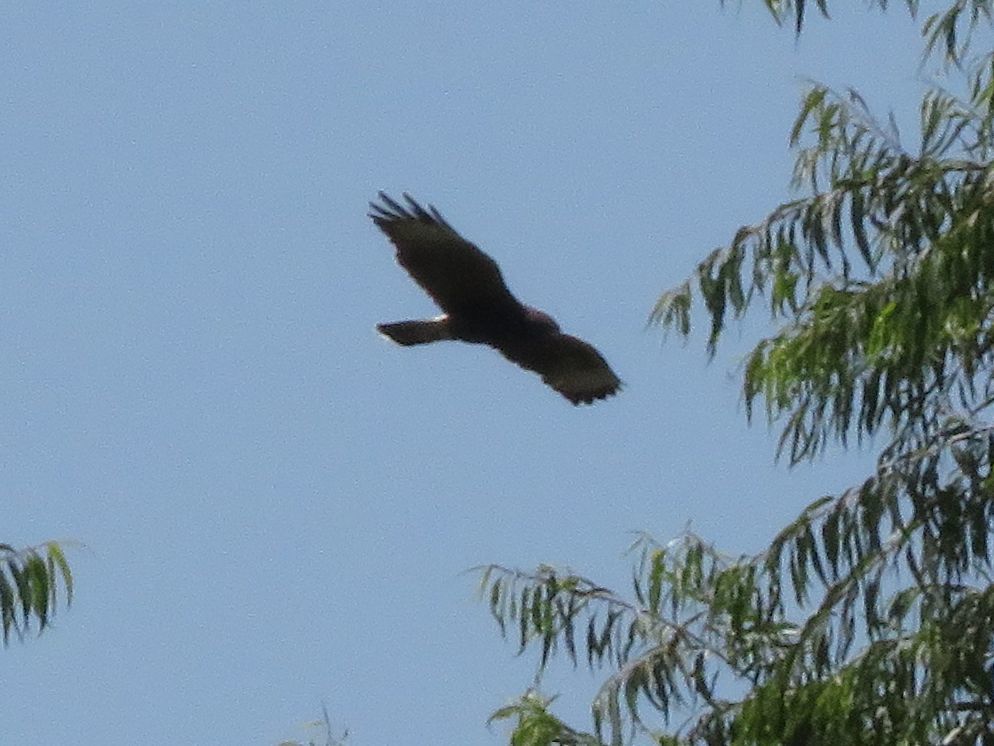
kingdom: Animalia
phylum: Chordata
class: Aves
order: Accipitriformes
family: Accipitridae
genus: Parabuteo
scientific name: Parabuteo unicinctus
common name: Harris's hawk
